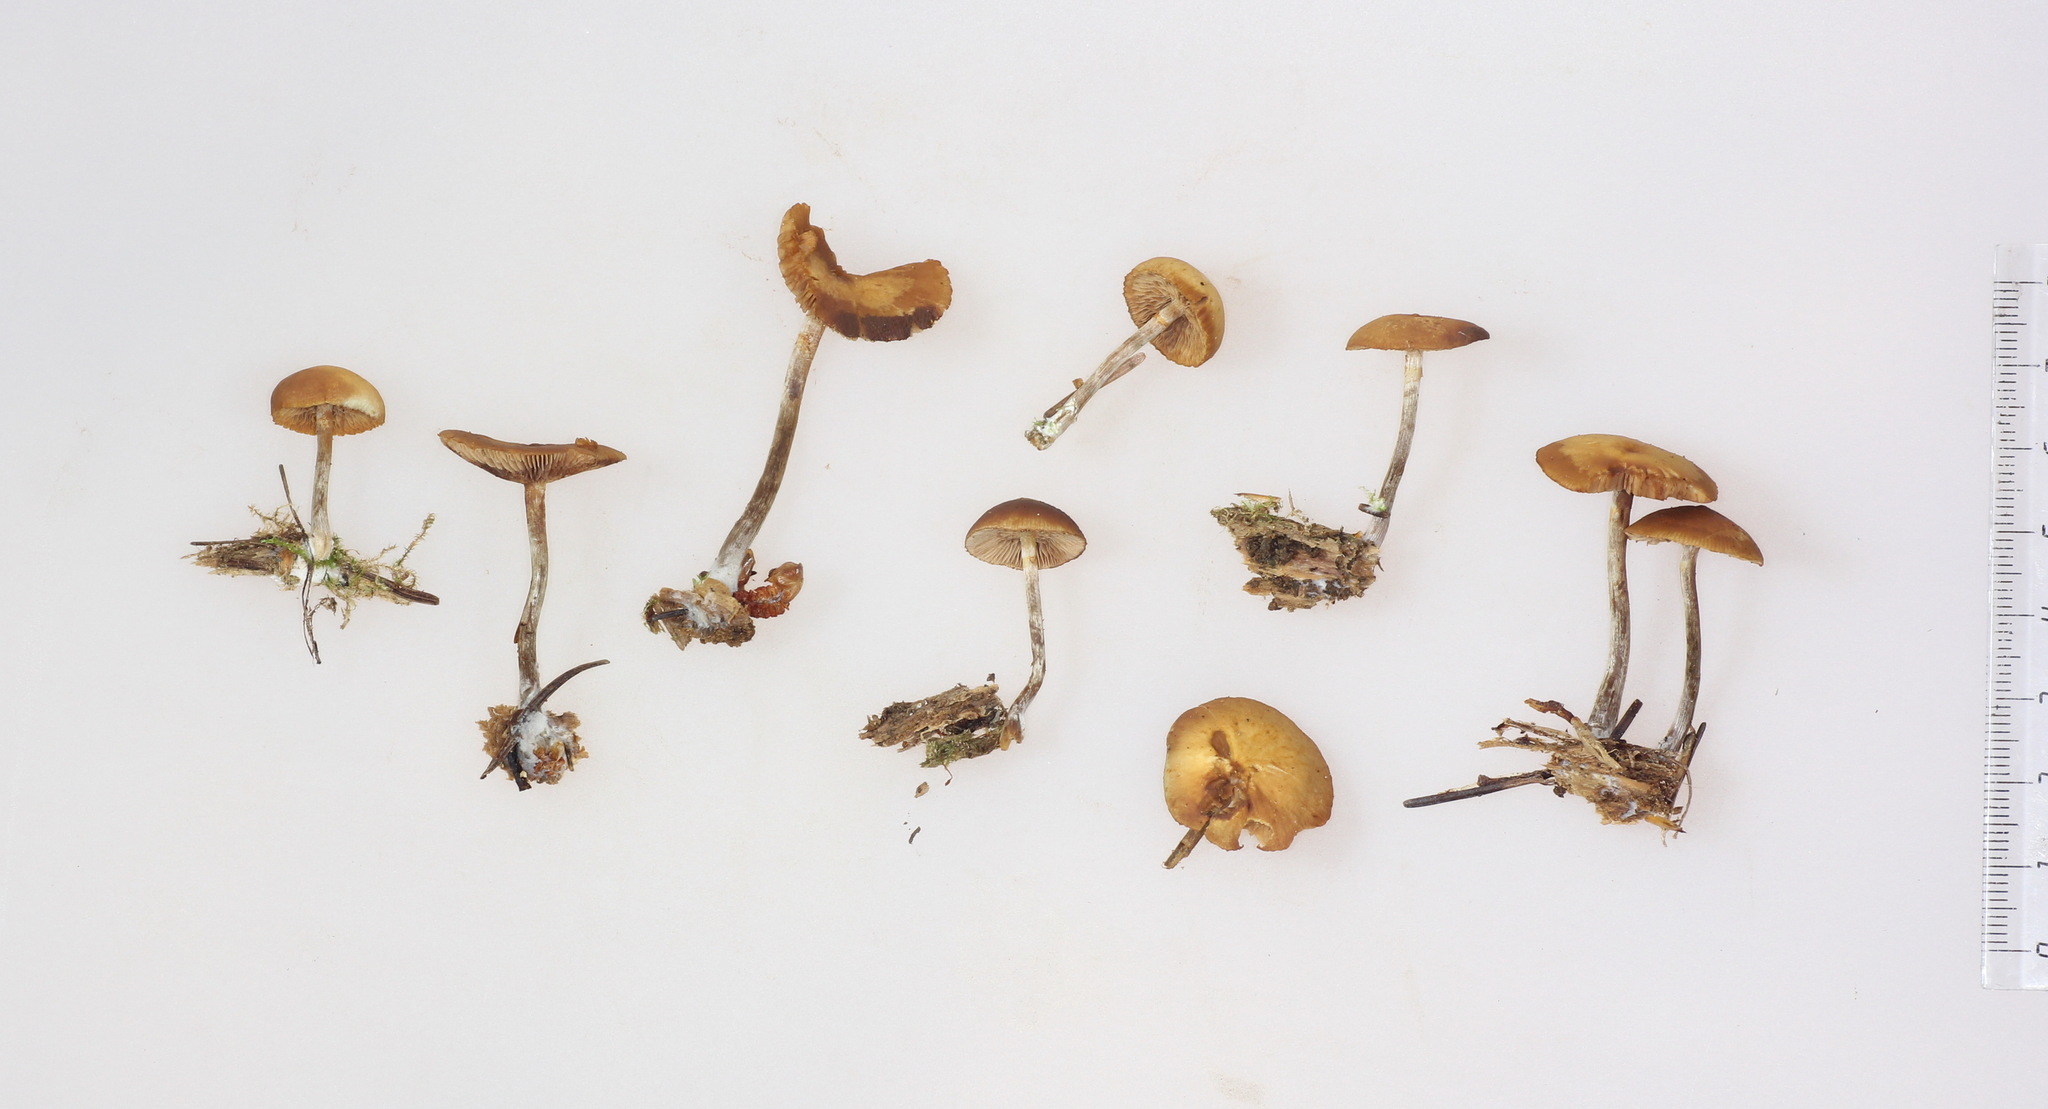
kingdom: Fungi
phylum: Basidiomycota
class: Agaricomycetes
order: Agaricales
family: Hymenogastraceae
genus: Galerina
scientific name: Galerina marginata
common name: Funeral bell
